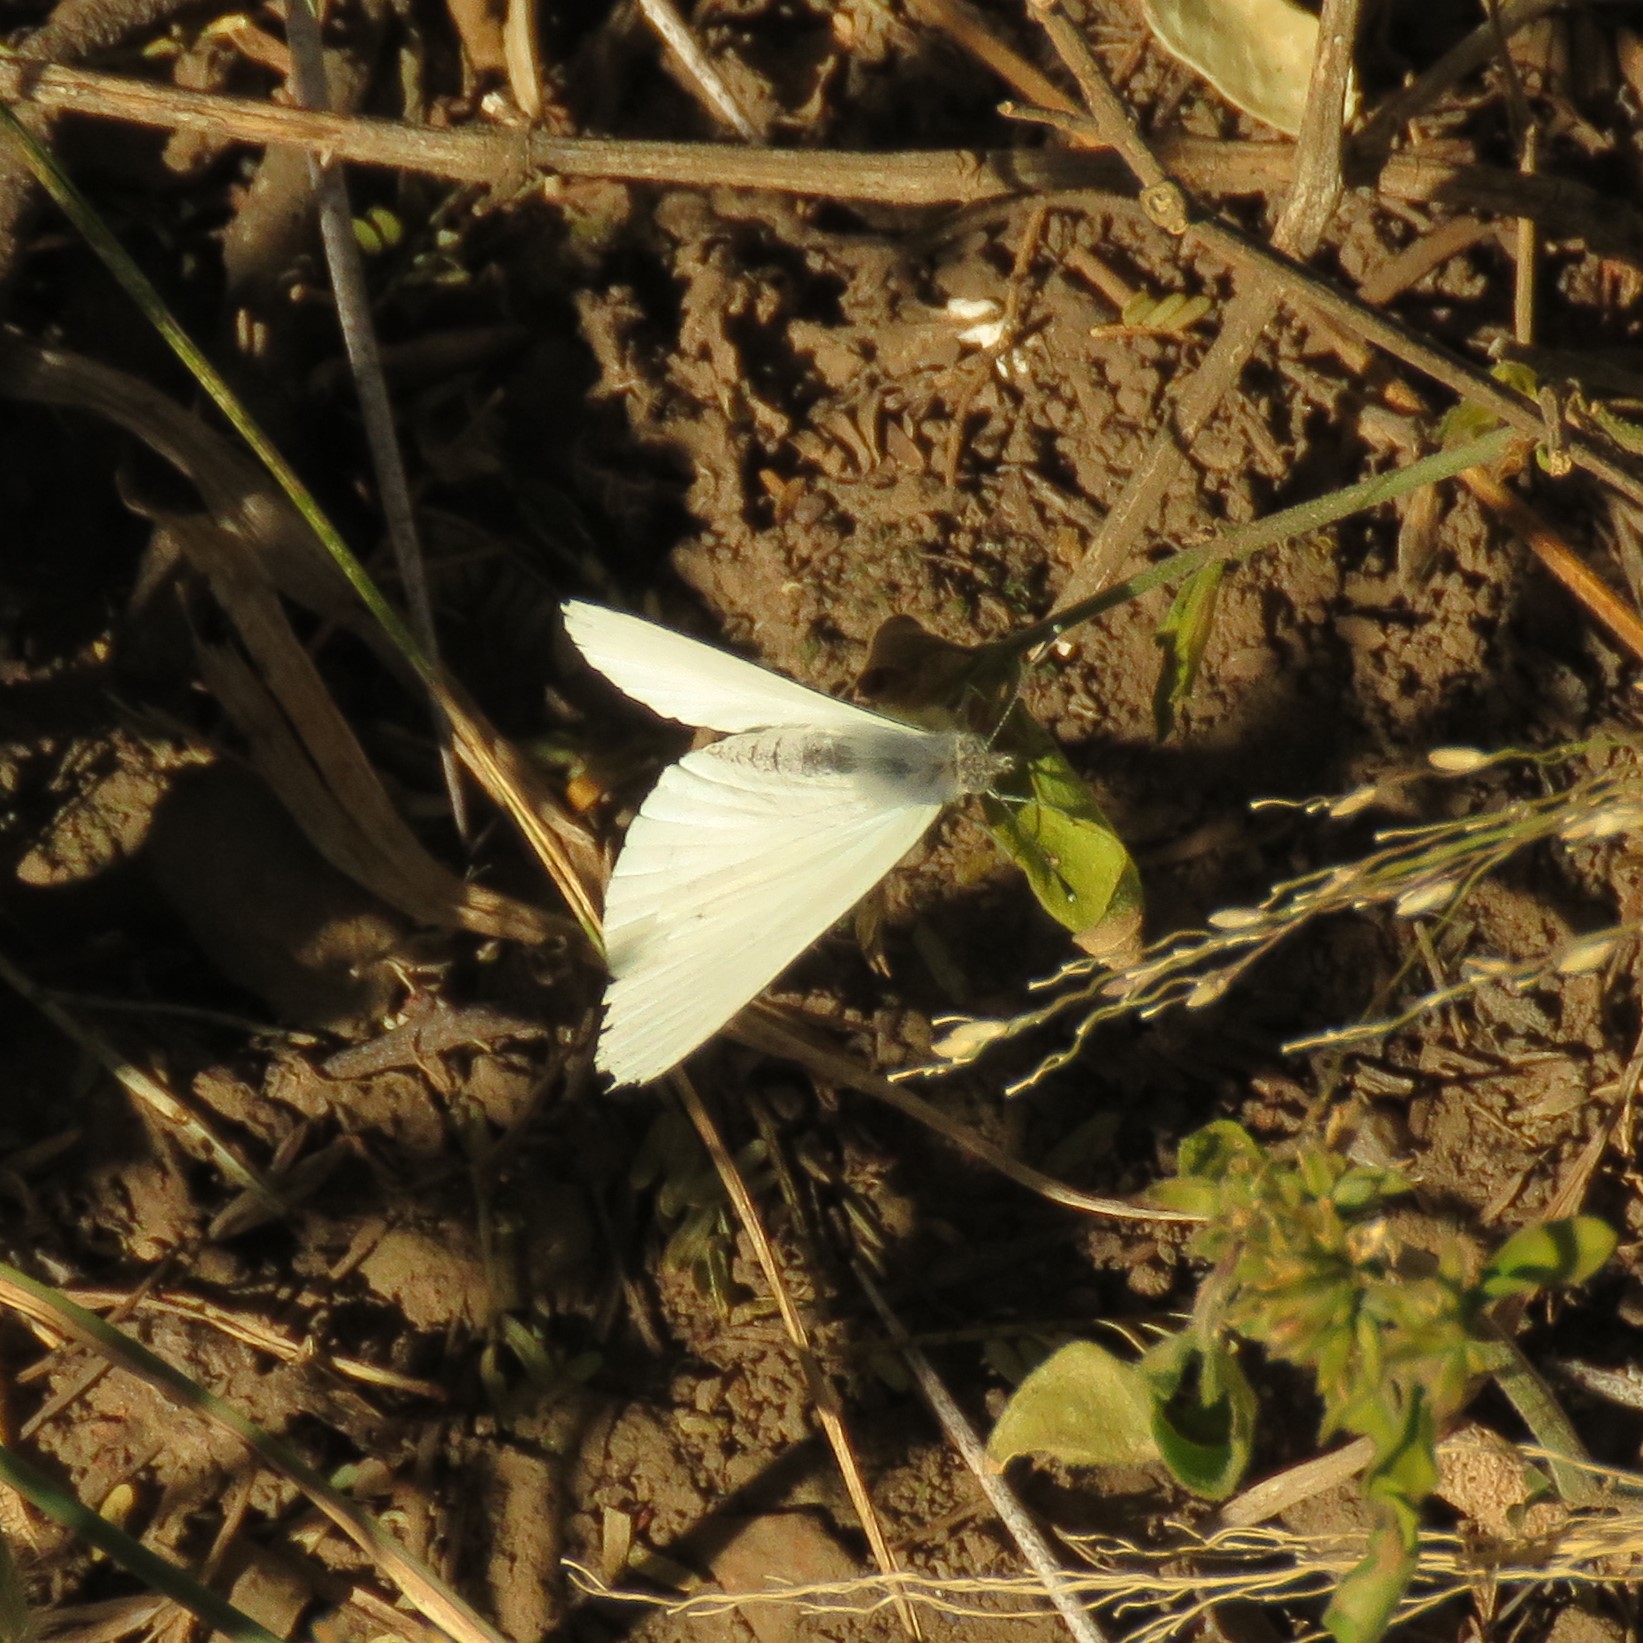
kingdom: Animalia
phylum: Arthropoda
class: Insecta
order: Lepidoptera
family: Pieridae
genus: Dixeia
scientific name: Dixeia charina
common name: African small white
